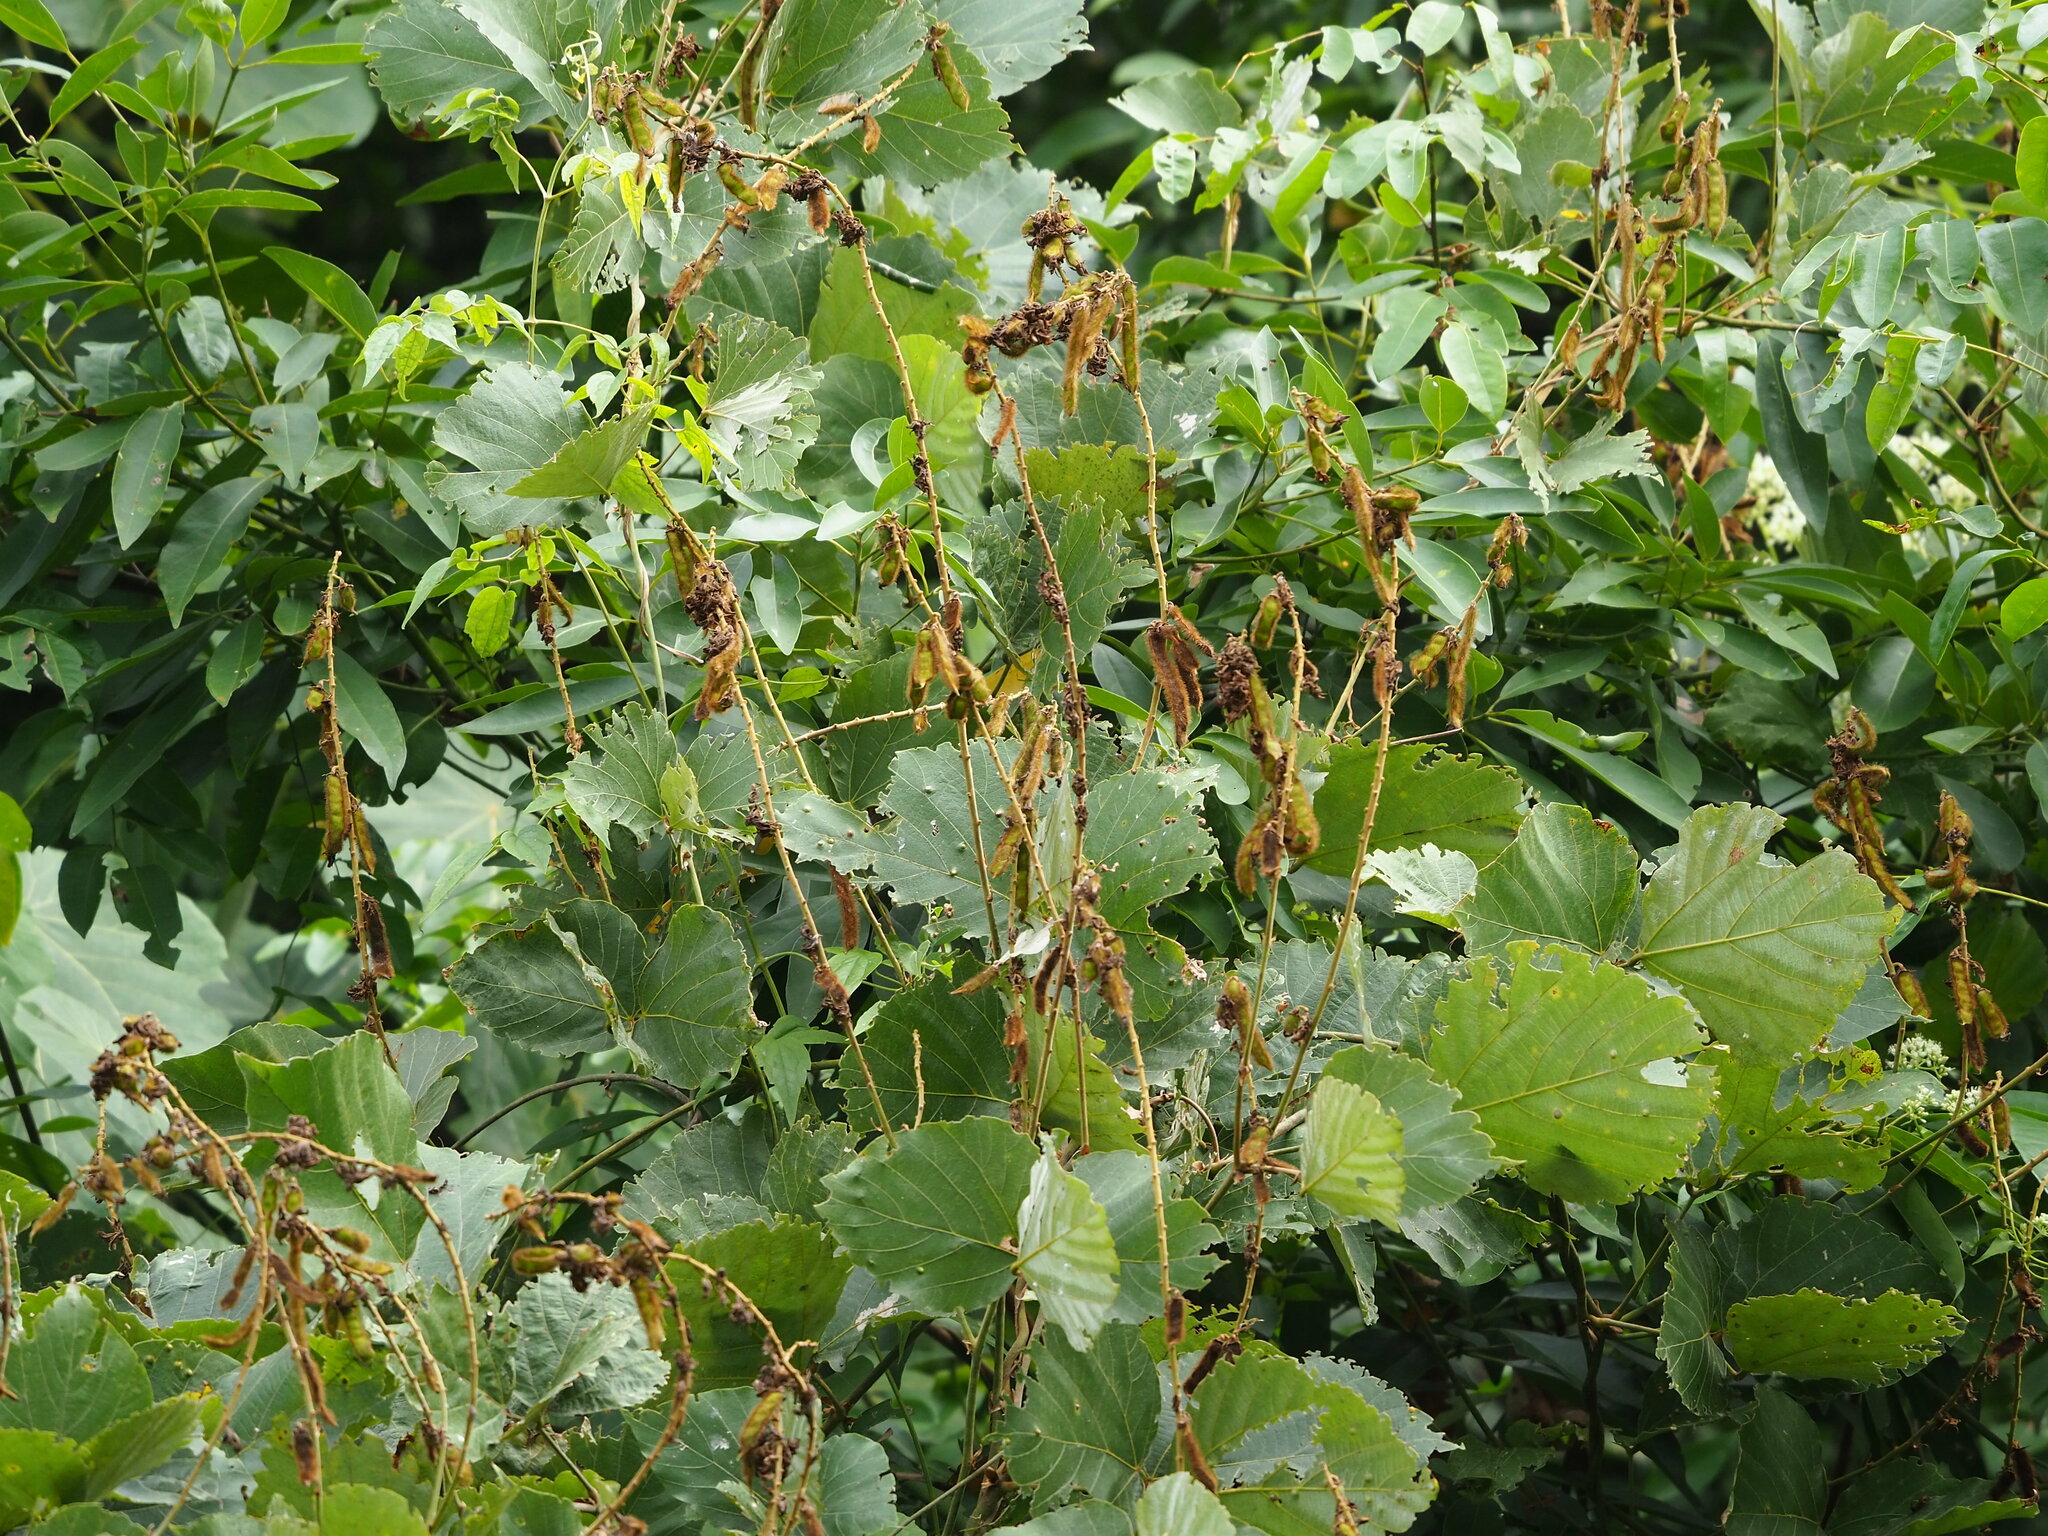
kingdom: Plantae
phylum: Tracheophyta
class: Magnoliopsida
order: Fabales
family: Fabaceae
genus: Pueraria
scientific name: Pueraria montana
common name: Kudzu
